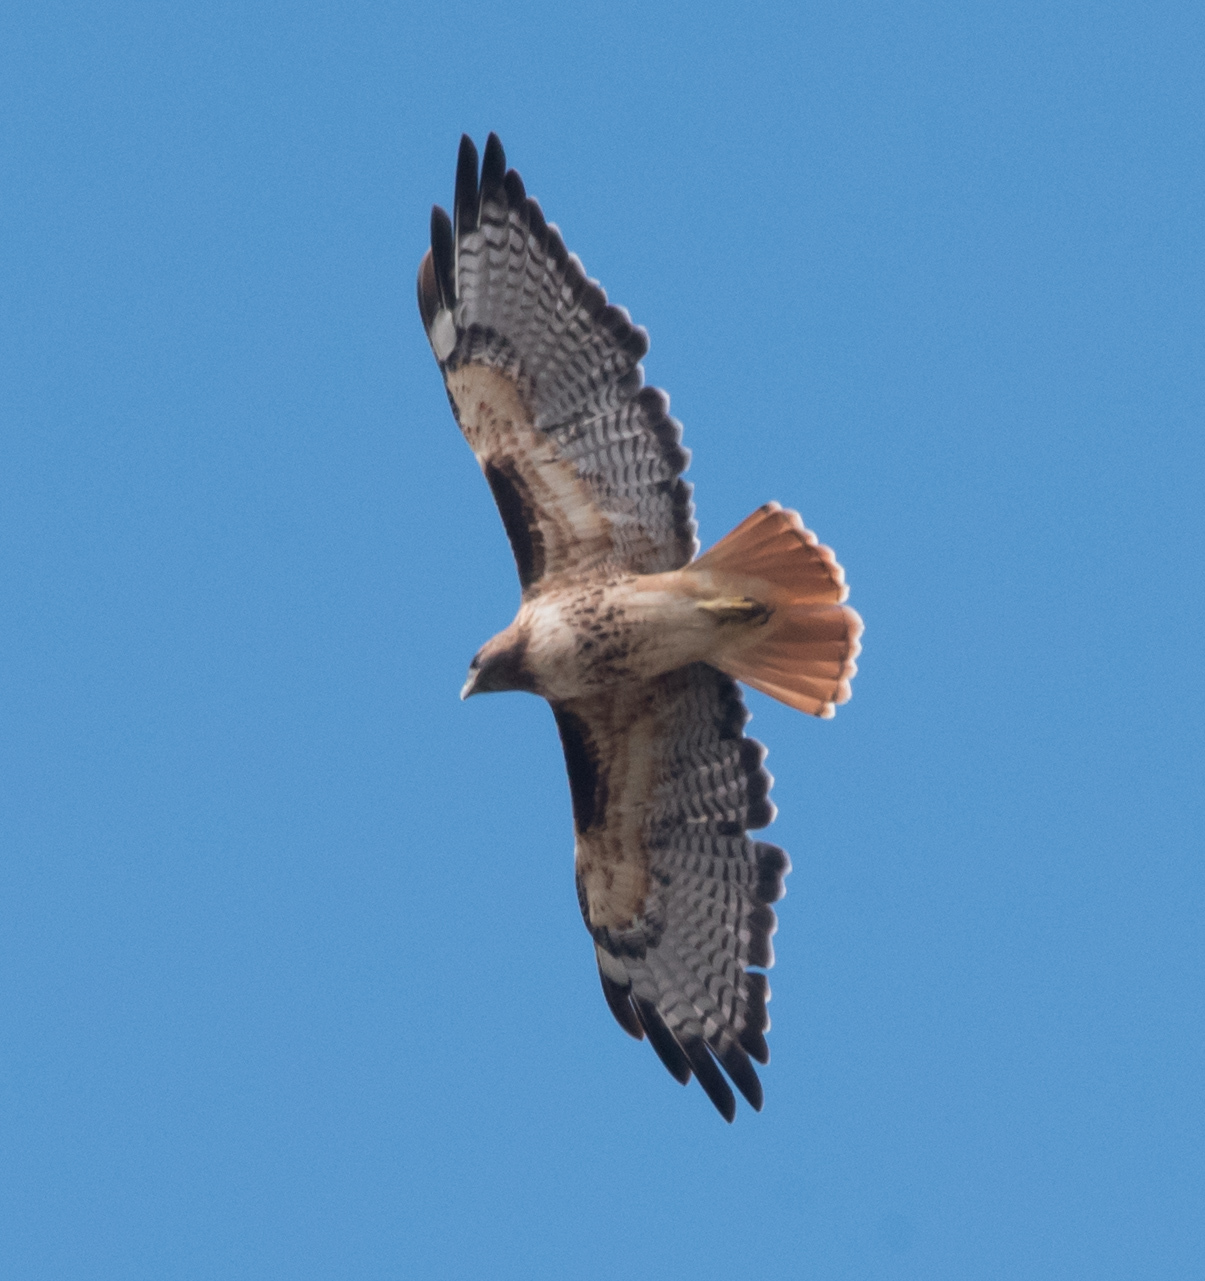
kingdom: Animalia
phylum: Chordata
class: Aves
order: Accipitriformes
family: Accipitridae
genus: Buteo
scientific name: Buteo jamaicensis
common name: Red-tailed hawk
